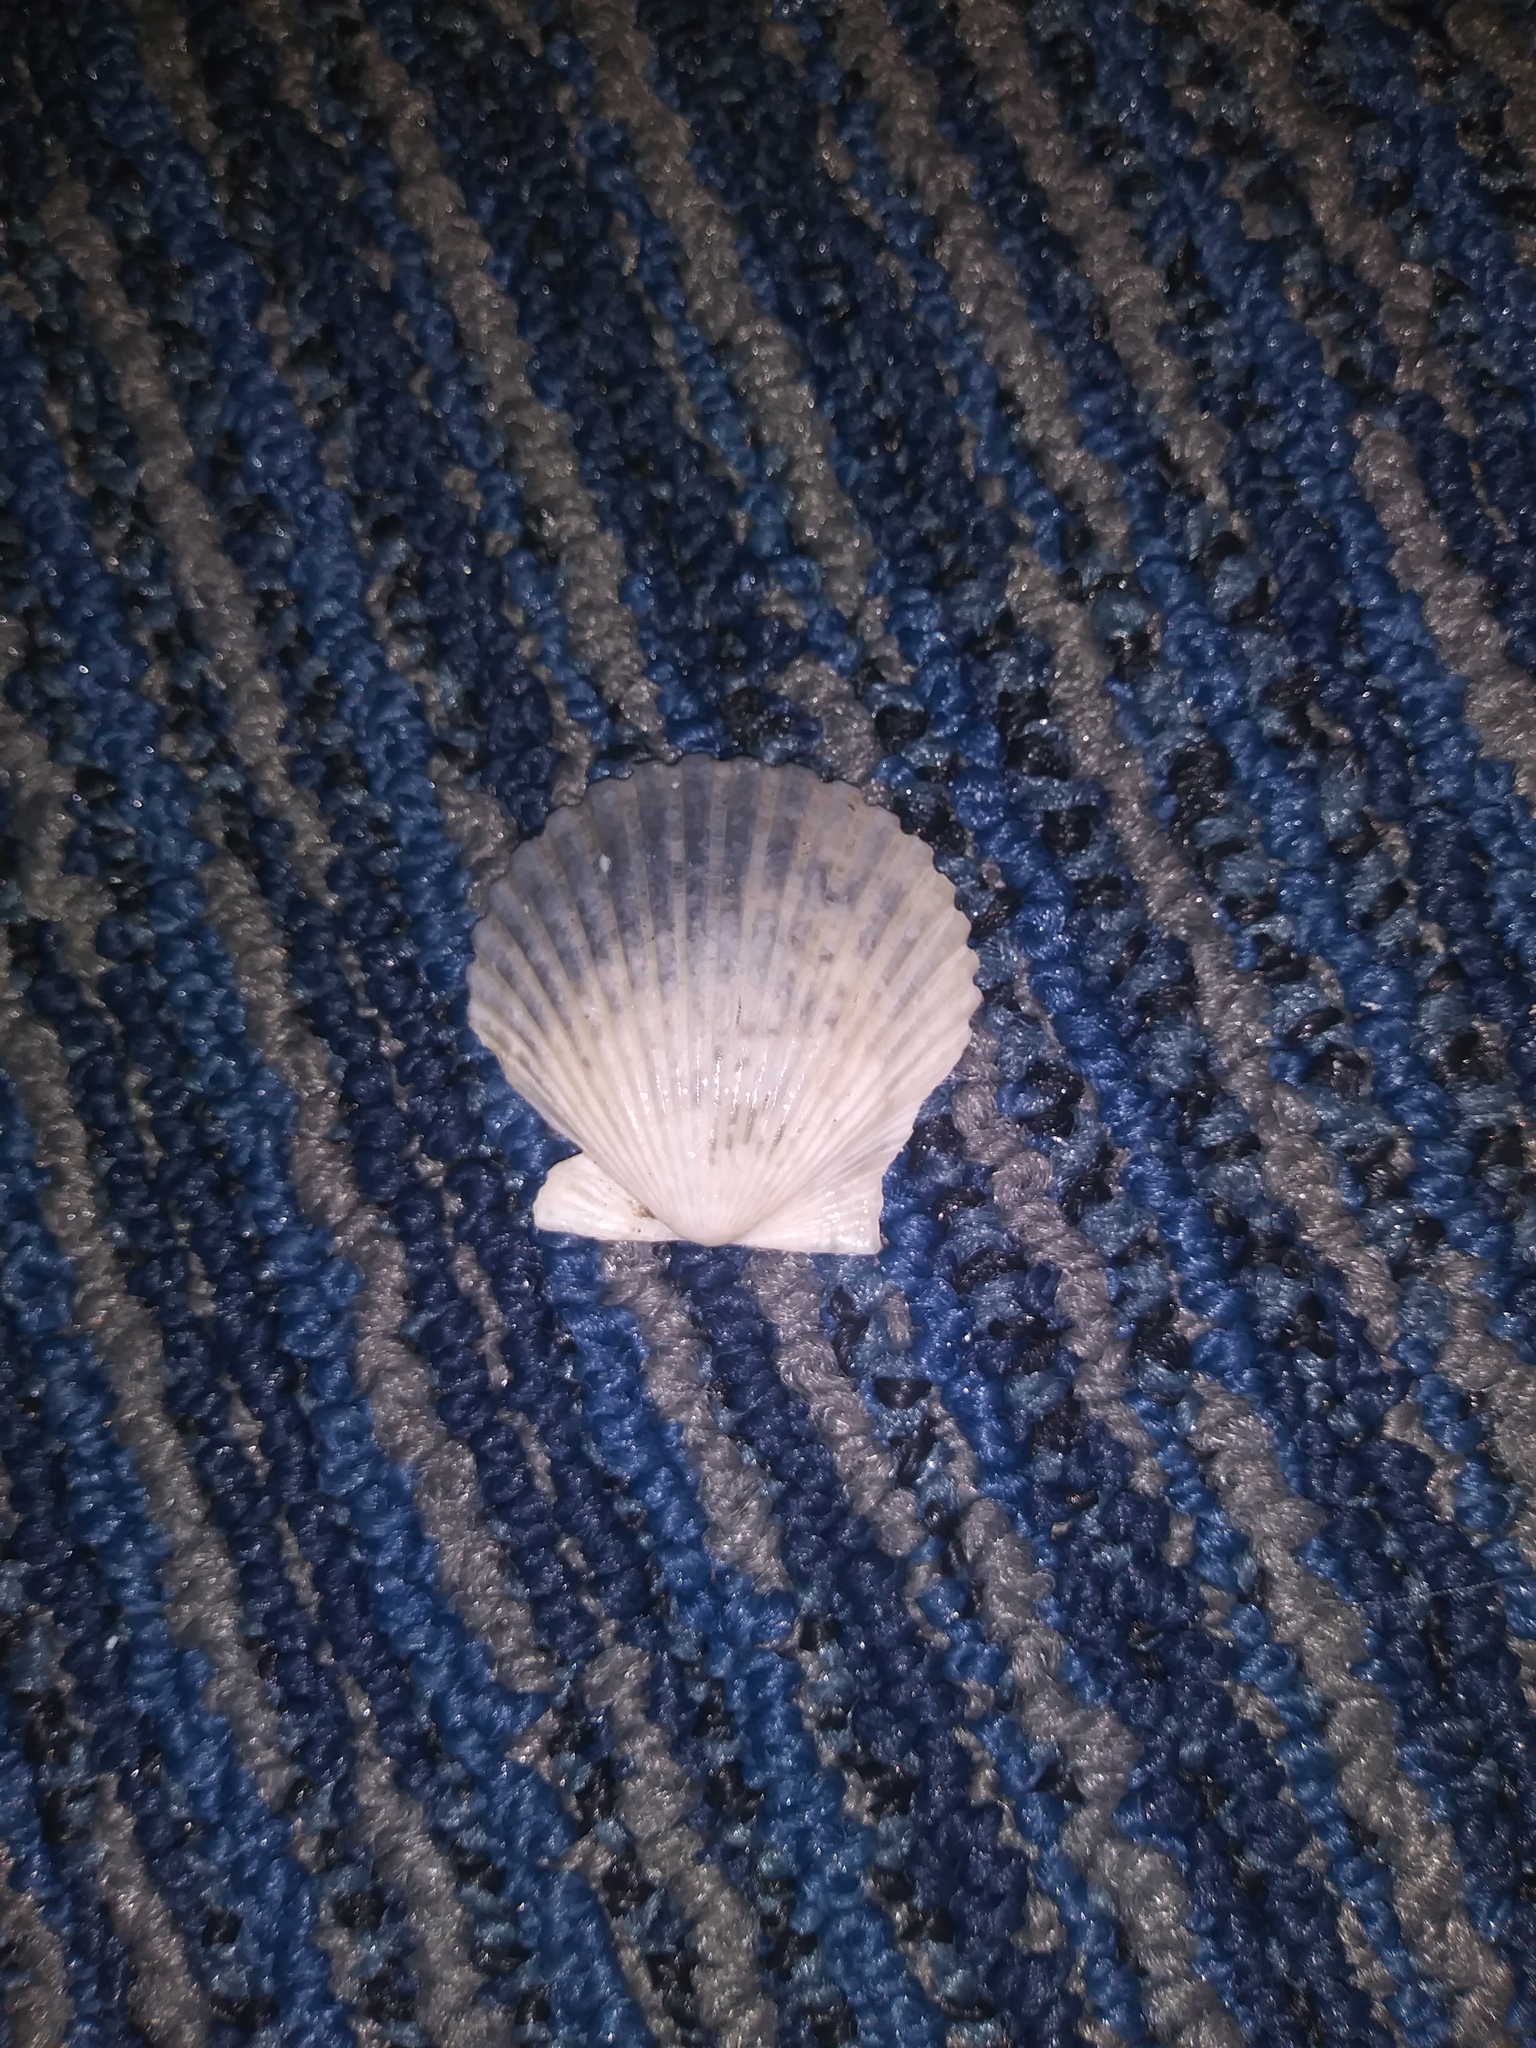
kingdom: Animalia
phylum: Mollusca
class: Bivalvia
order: Pectinida
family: Pectinidae
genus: Argopecten
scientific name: Argopecten irradians
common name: Atlantic bay scallop
